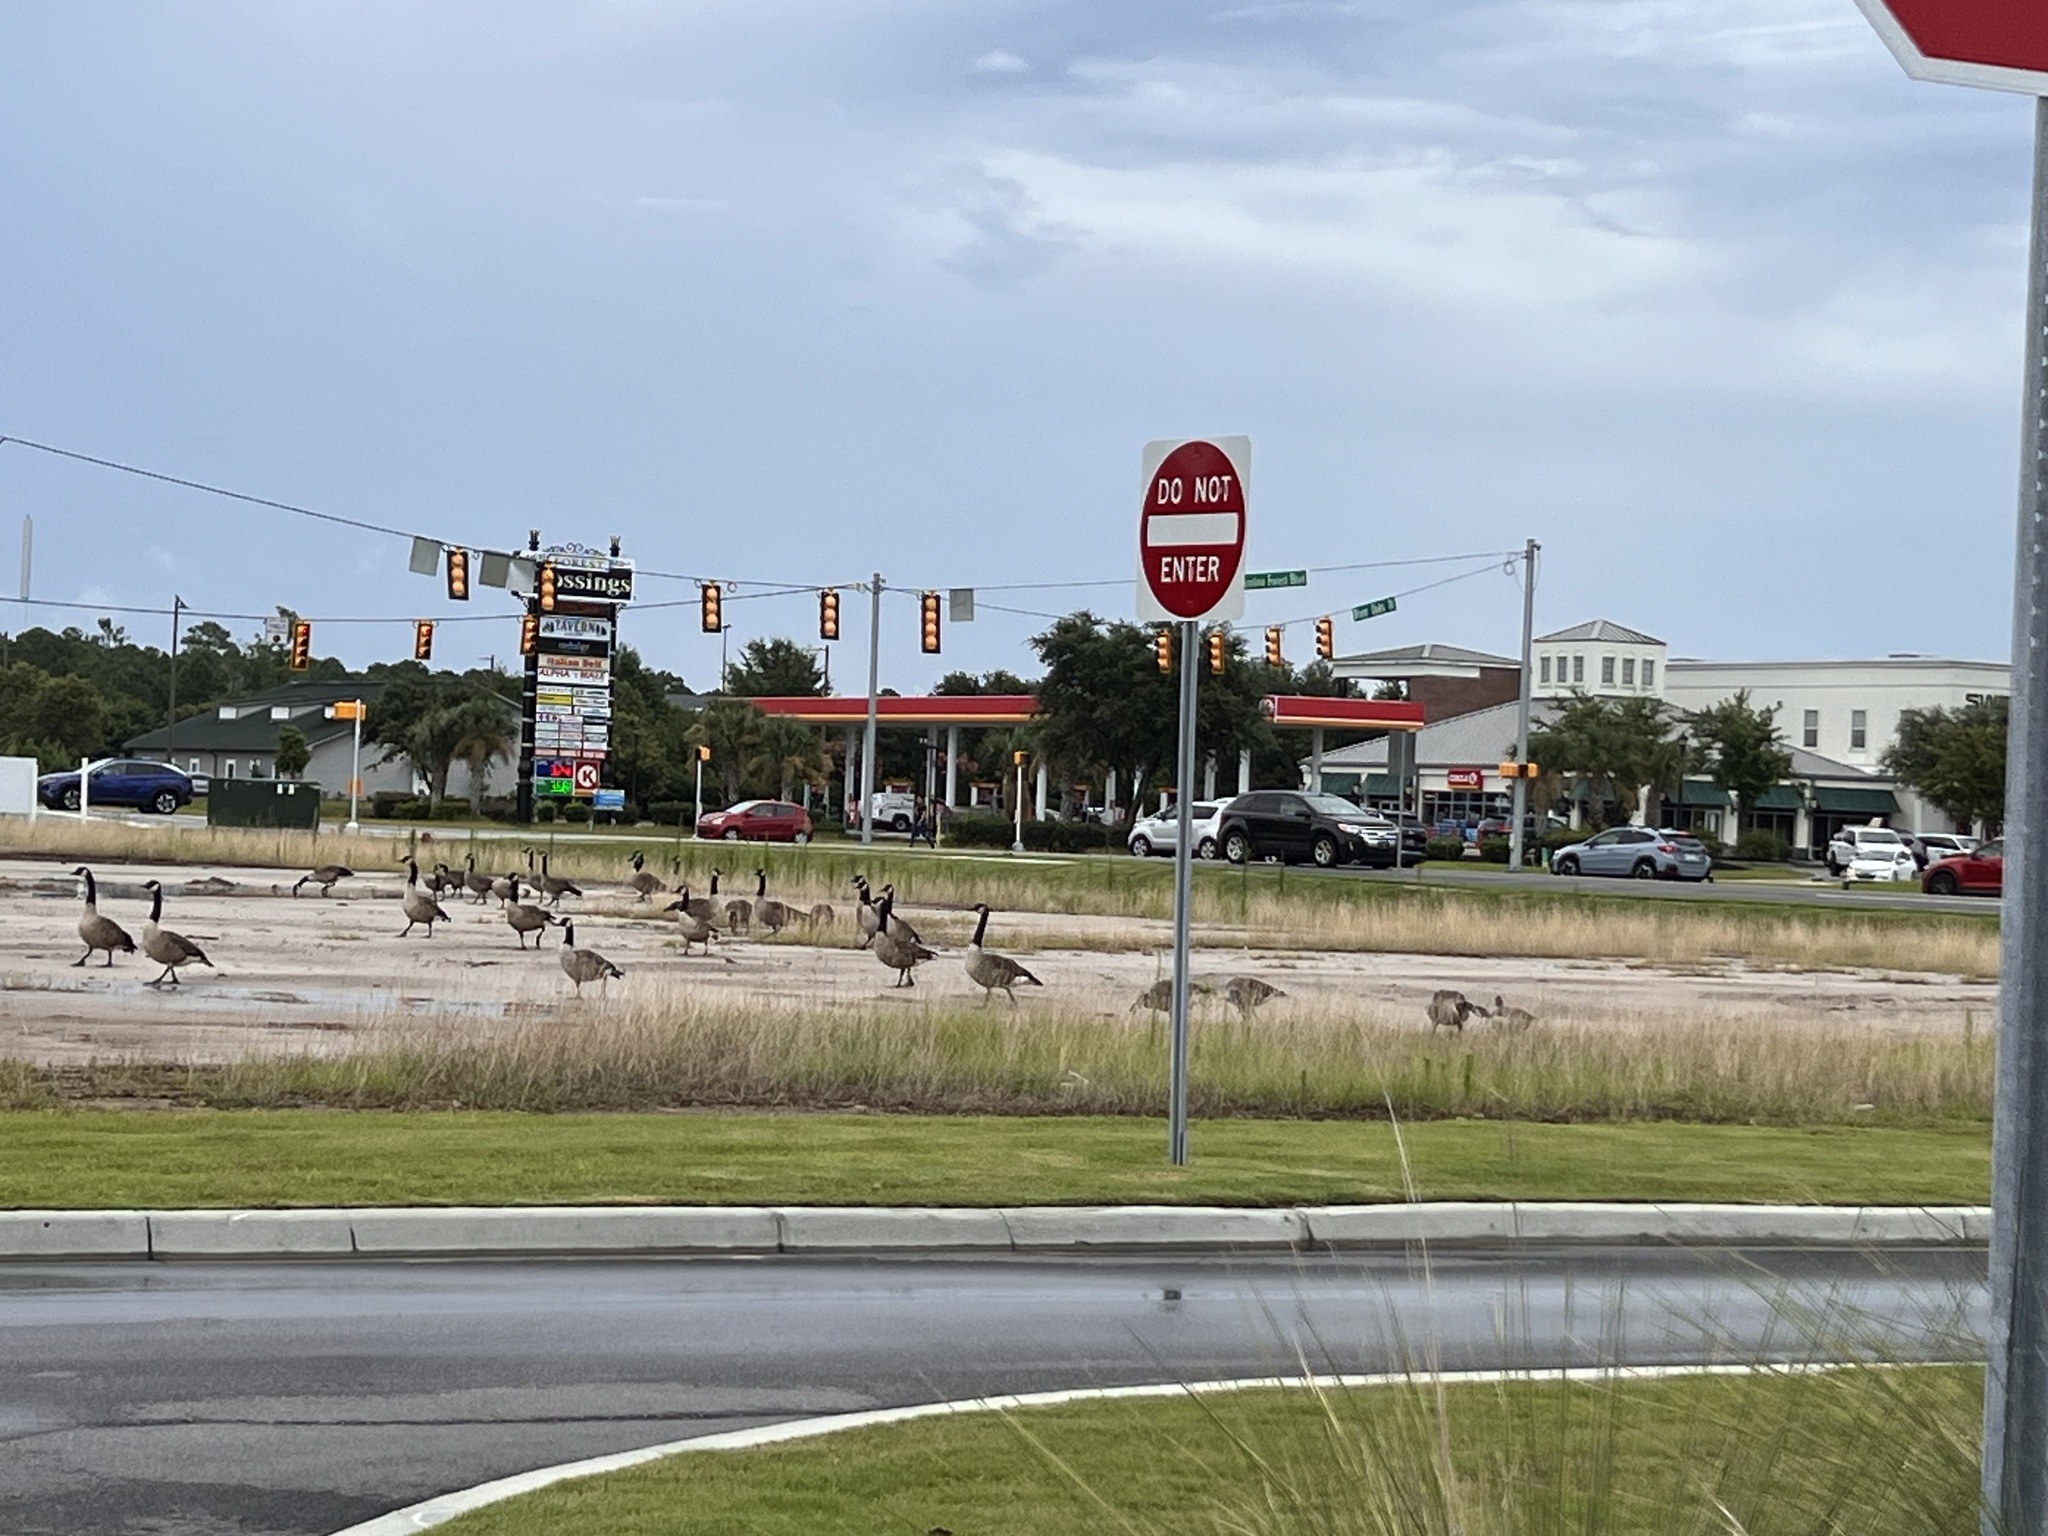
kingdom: Animalia
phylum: Chordata
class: Aves
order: Anseriformes
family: Anatidae
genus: Branta
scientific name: Branta canadensis
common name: Canada goose
